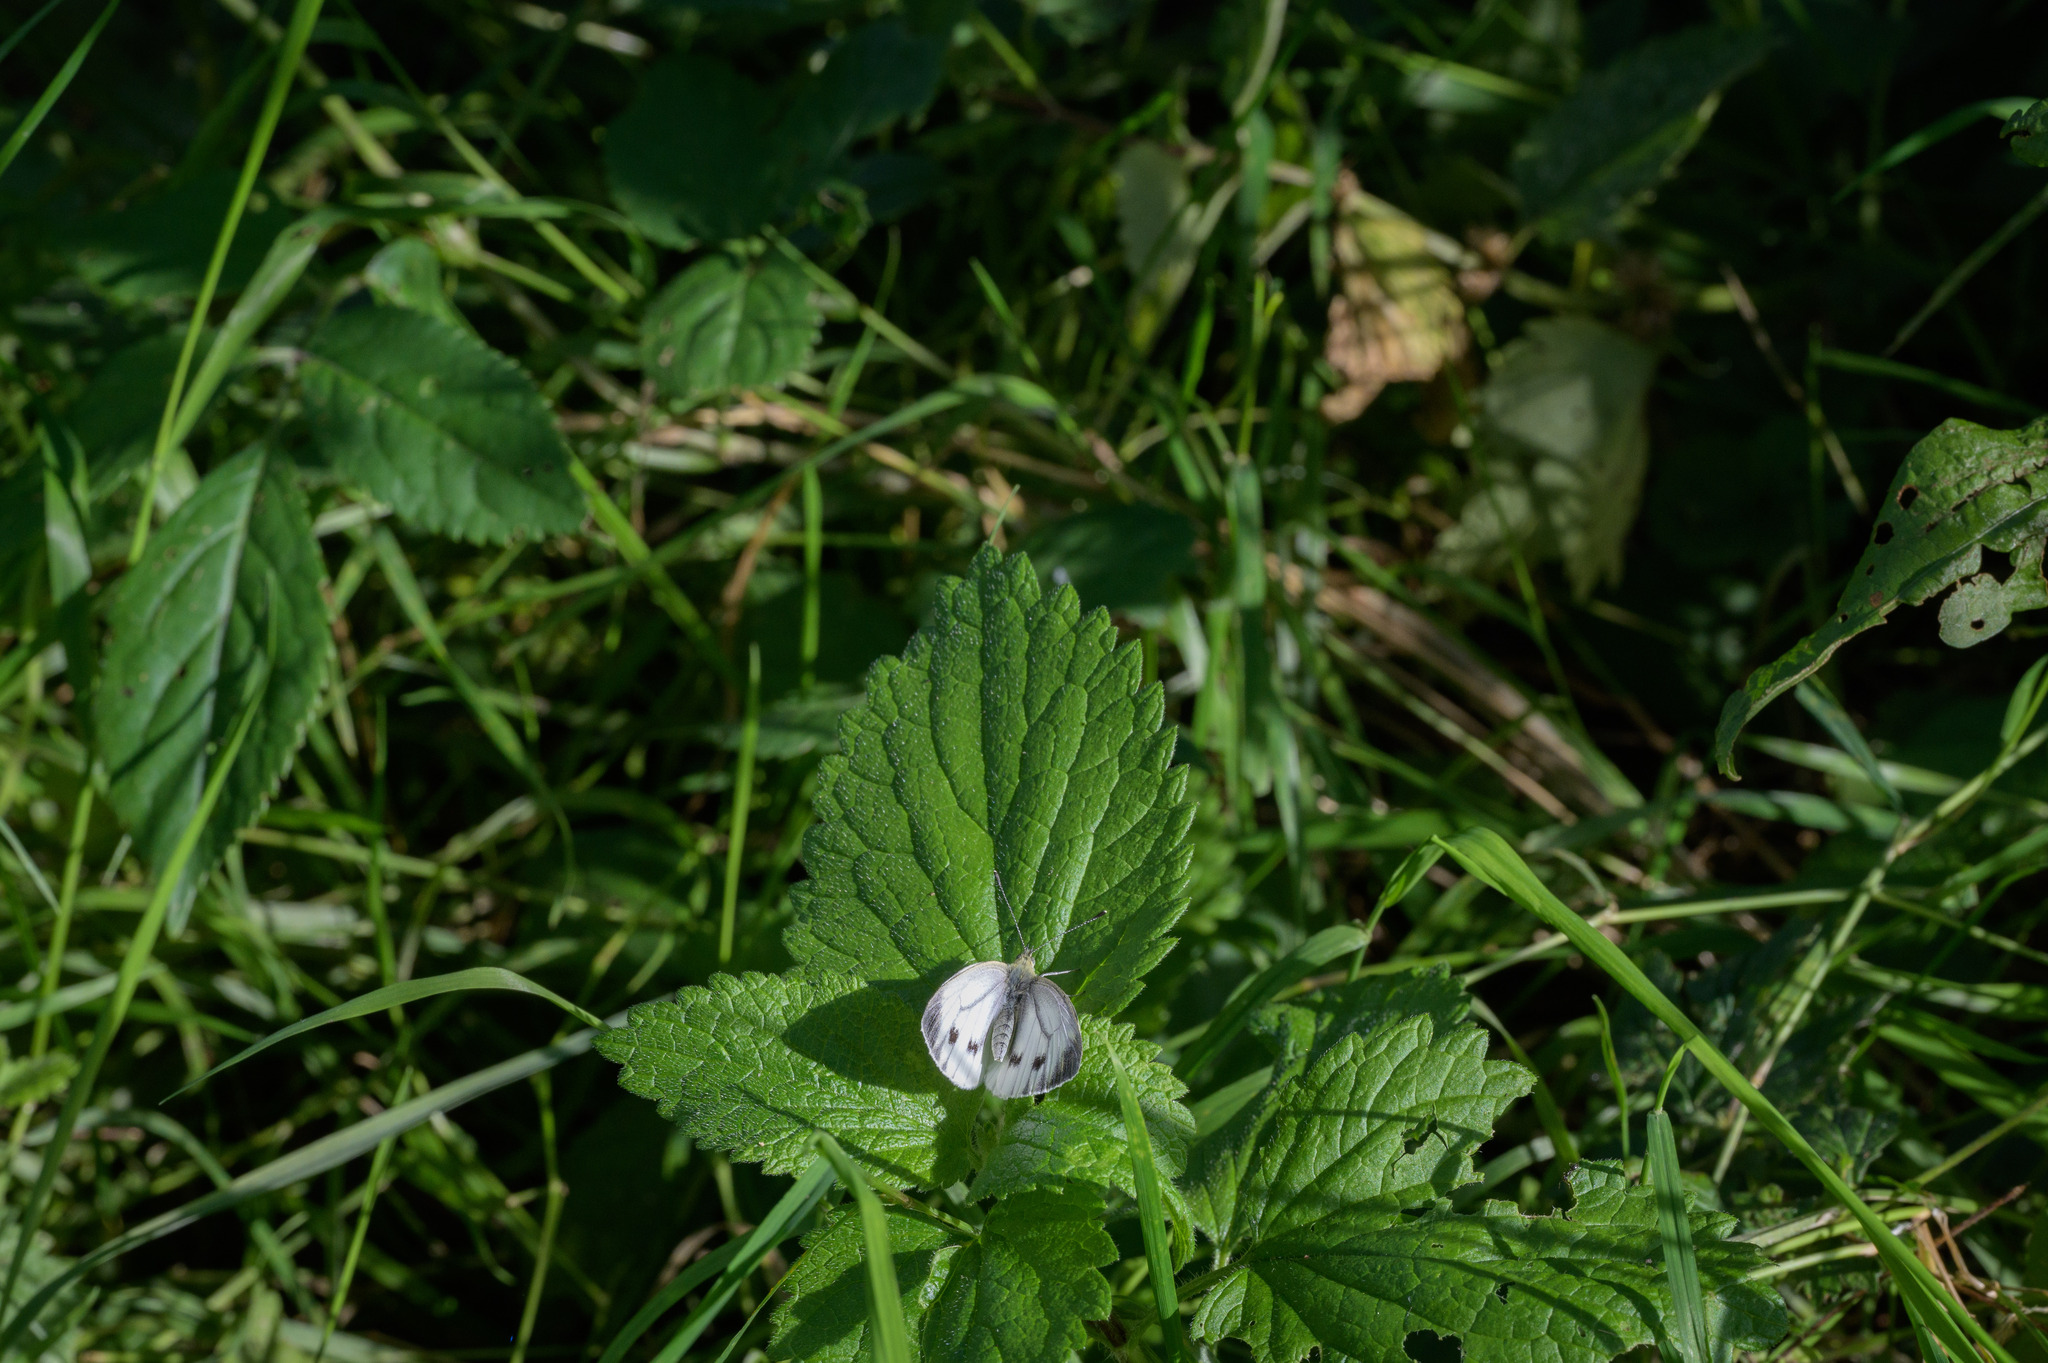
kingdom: Animalia
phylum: Arthropoda
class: Insecta
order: Lepidoptera
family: Pieridae
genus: Pieris
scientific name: Pieris napi
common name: Green-veined white
